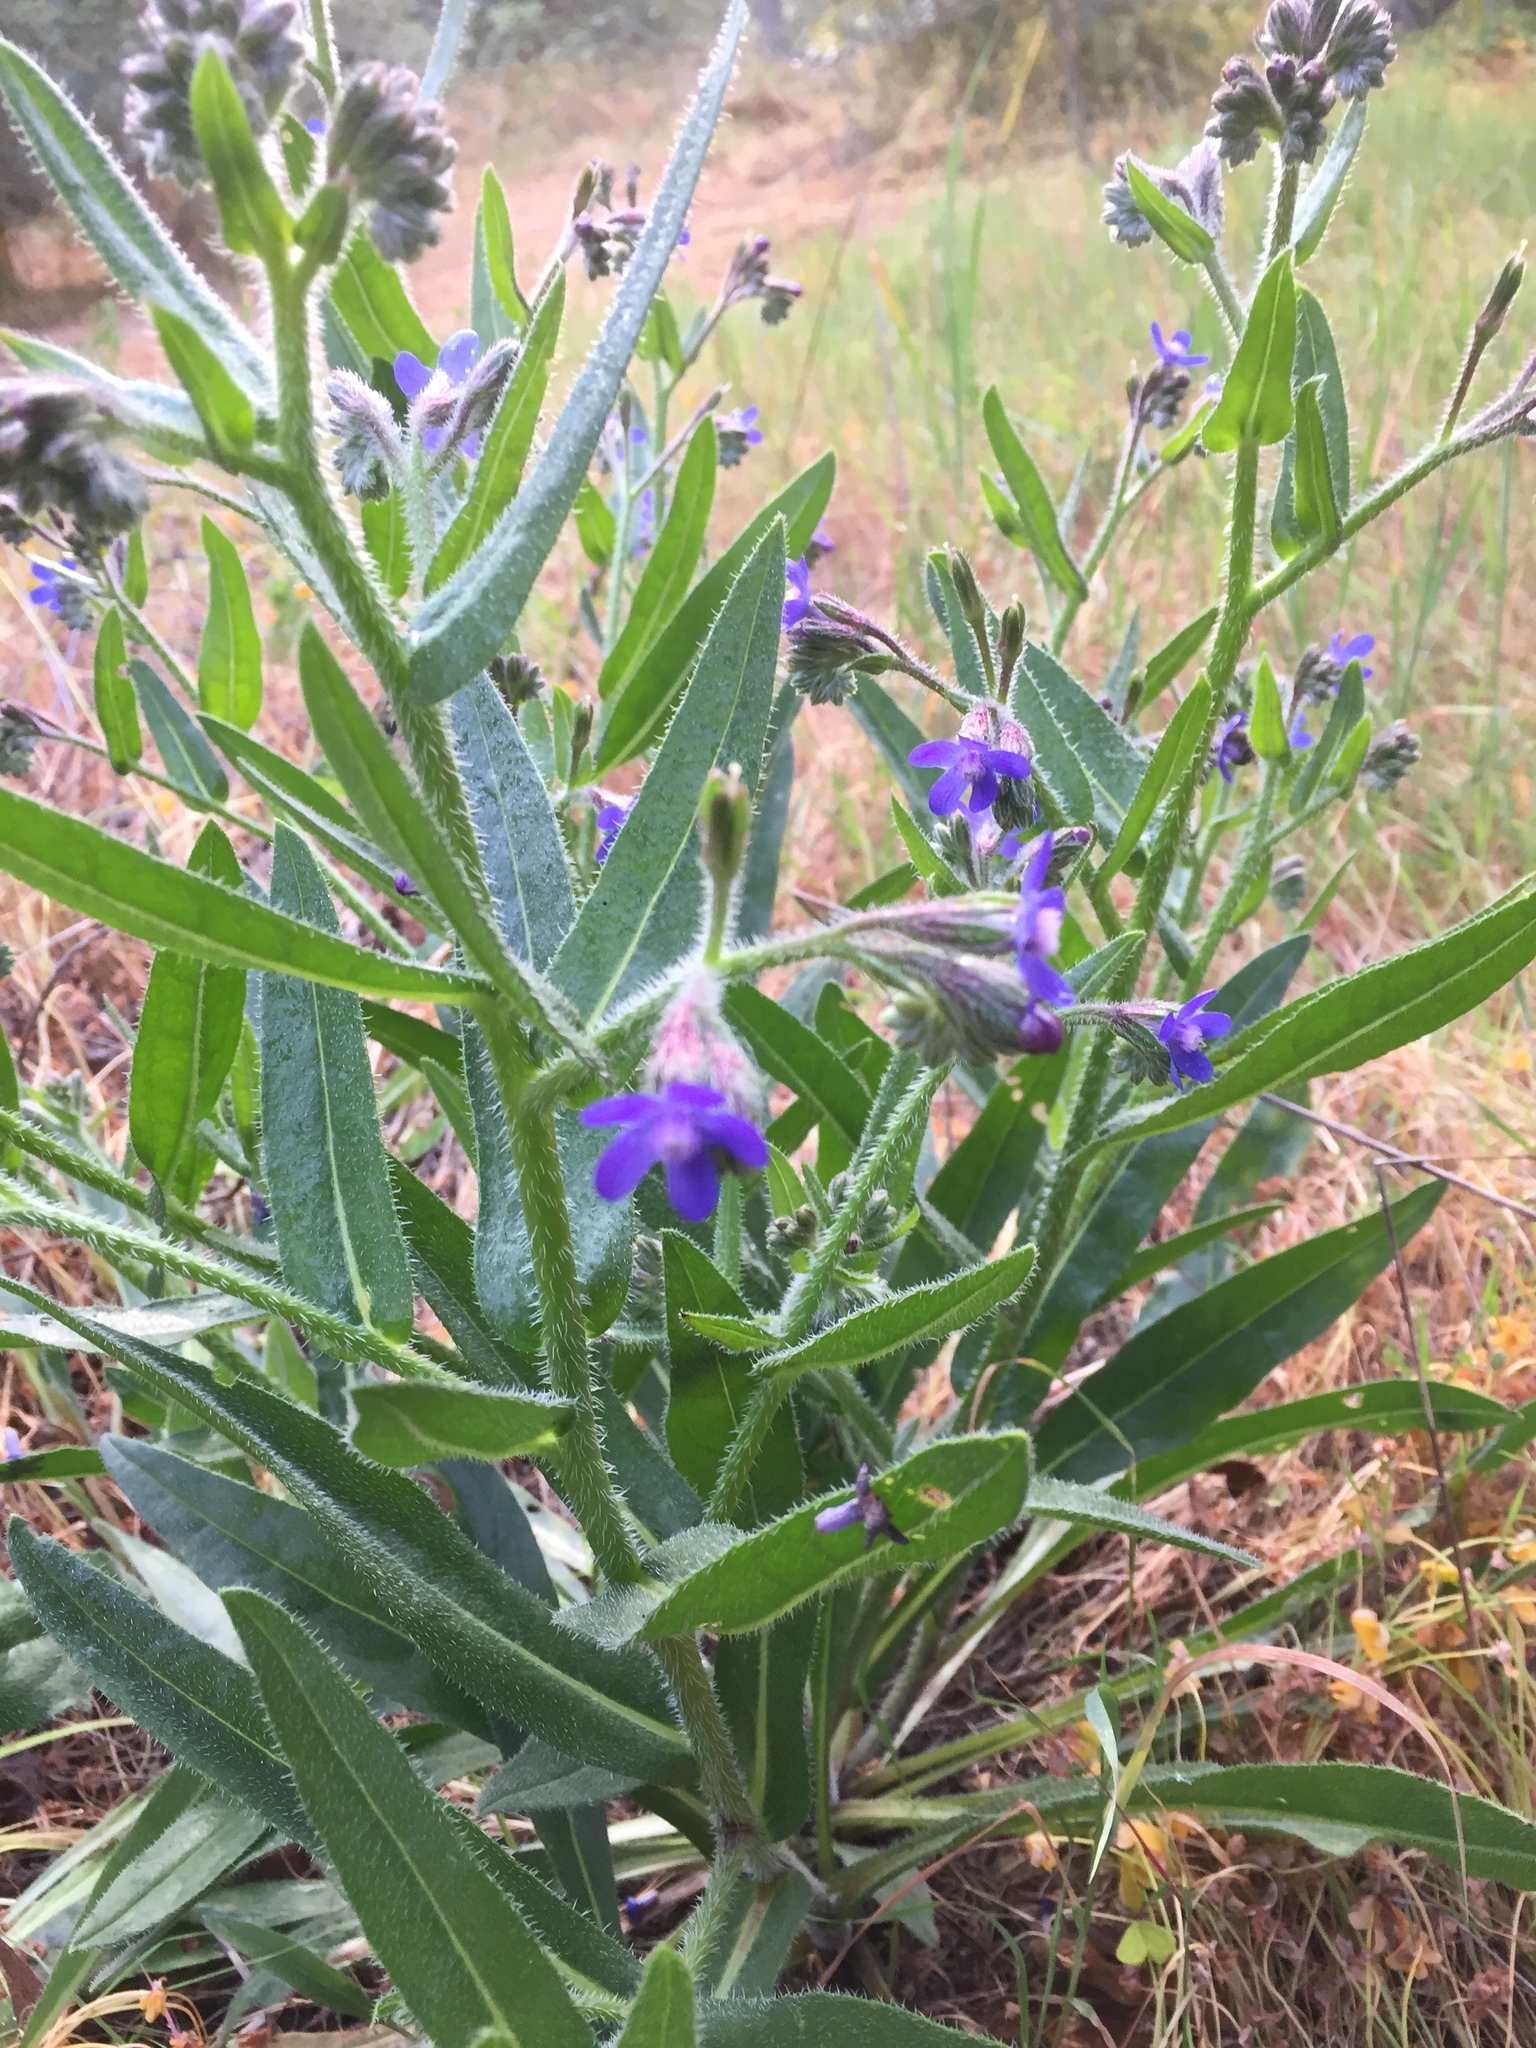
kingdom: Plantae
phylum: Tracheophyta
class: Magnoliopsida
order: Boraginales
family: Boraginaceae
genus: Anchusa
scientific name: Anchusa azurea
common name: Garden anchusa
